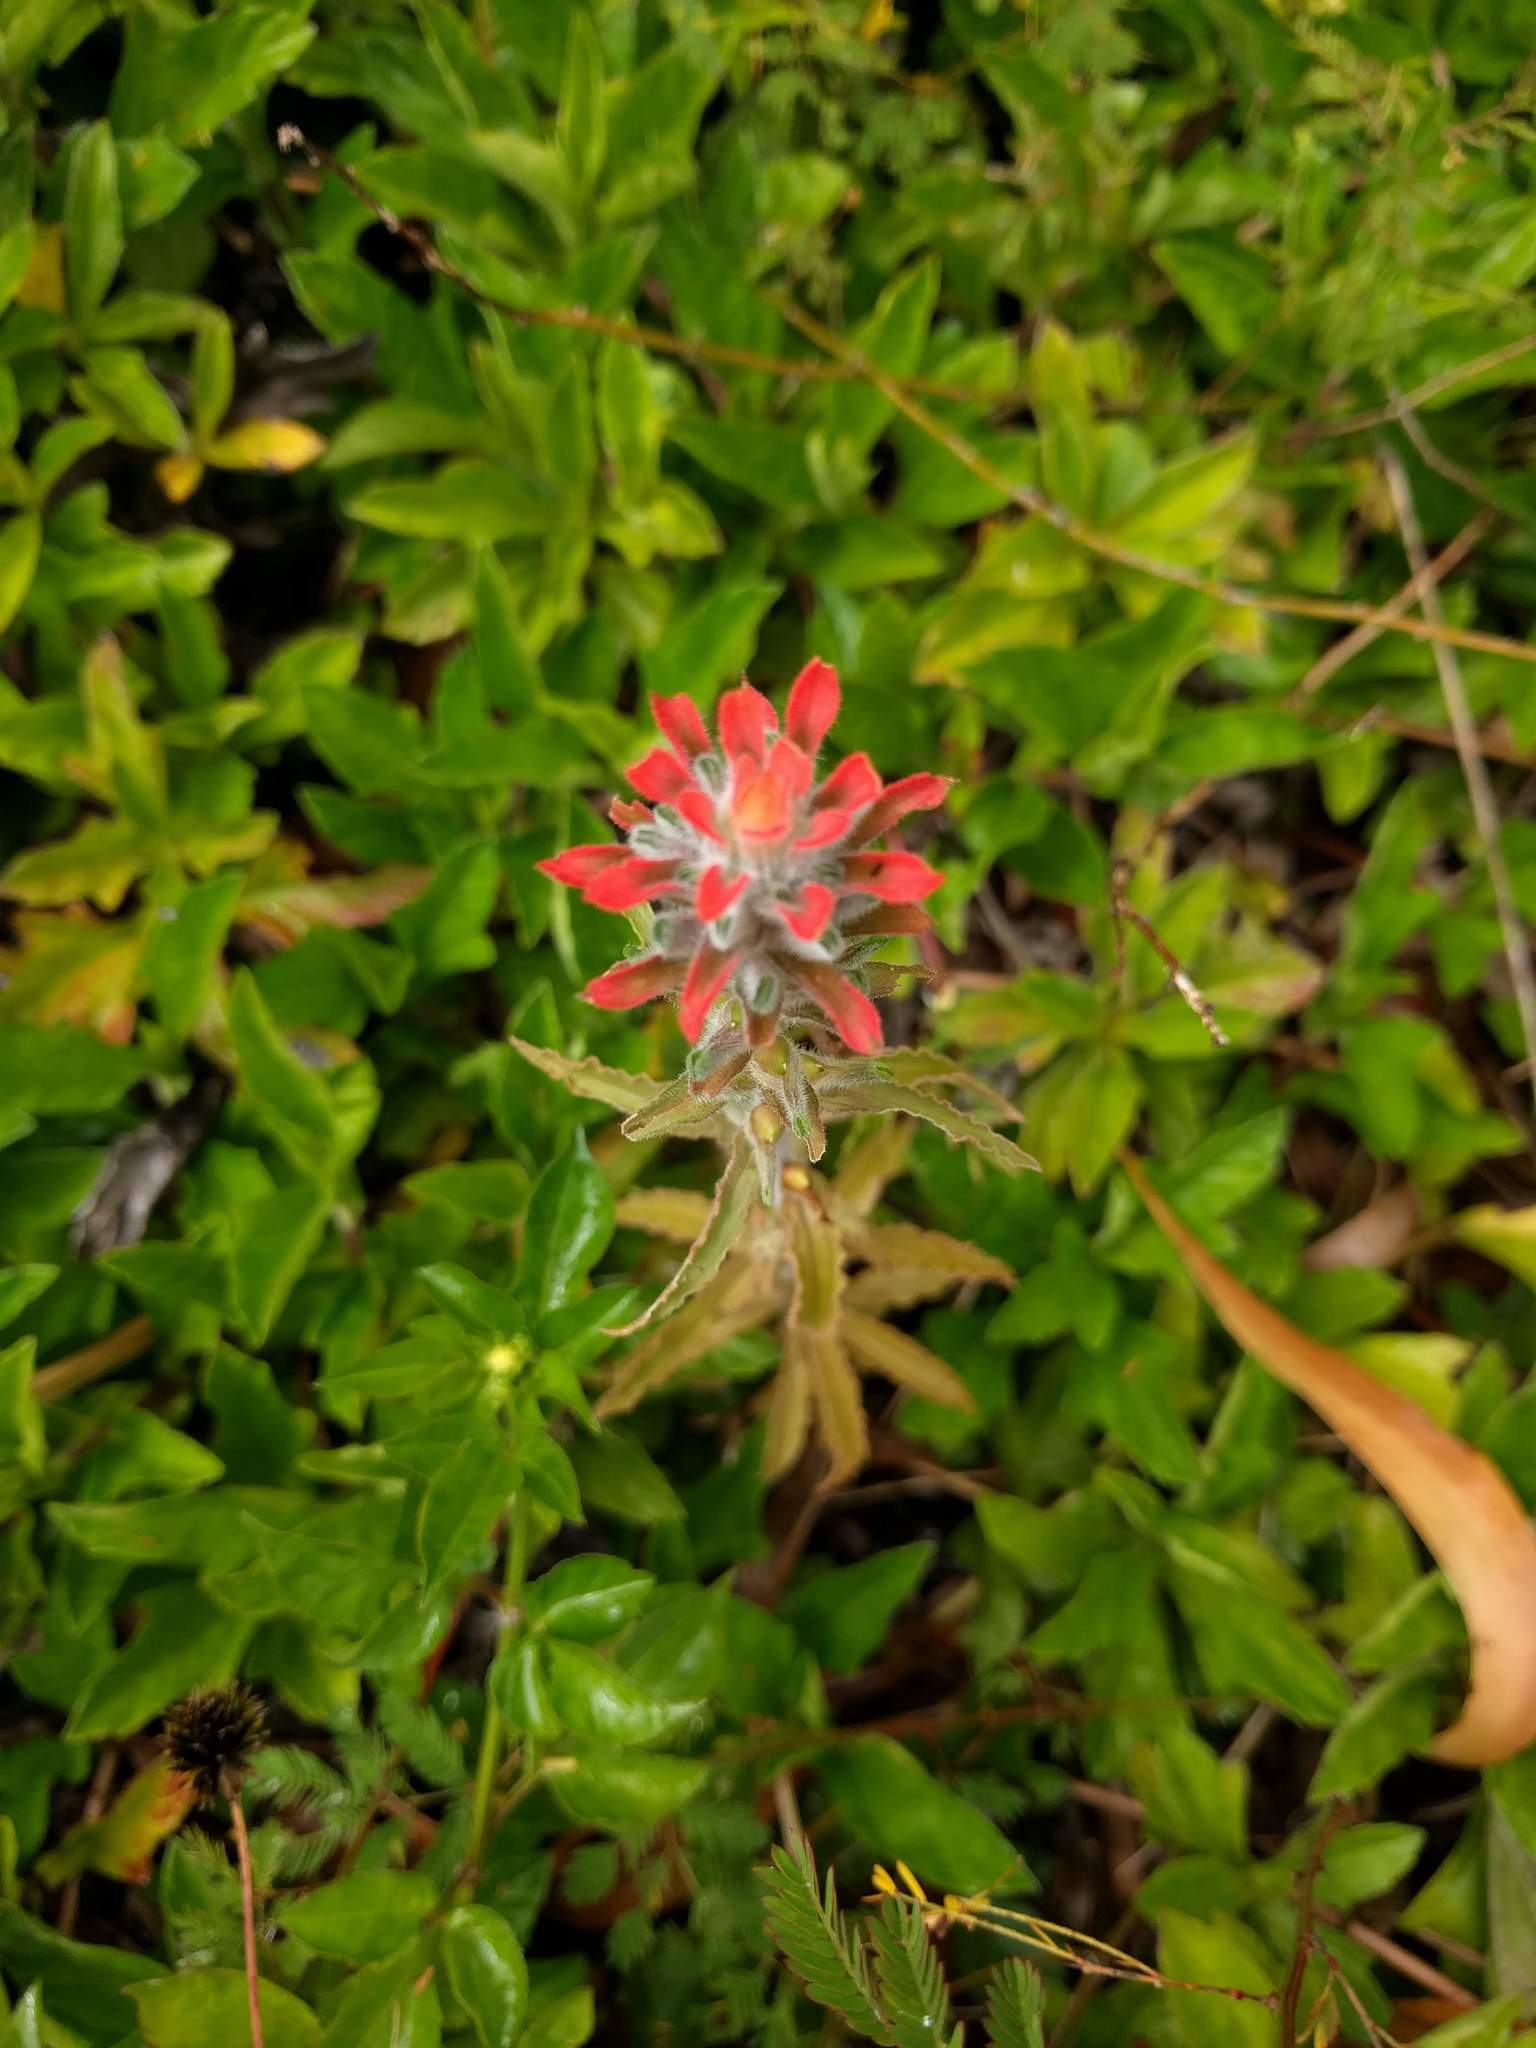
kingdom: Plantae
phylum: Tracheophyta
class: Magnoliopsida
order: Lamiales
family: Orobanchaceae
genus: Castilleja
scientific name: Castilleja arvensis
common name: Indian paintbrush
